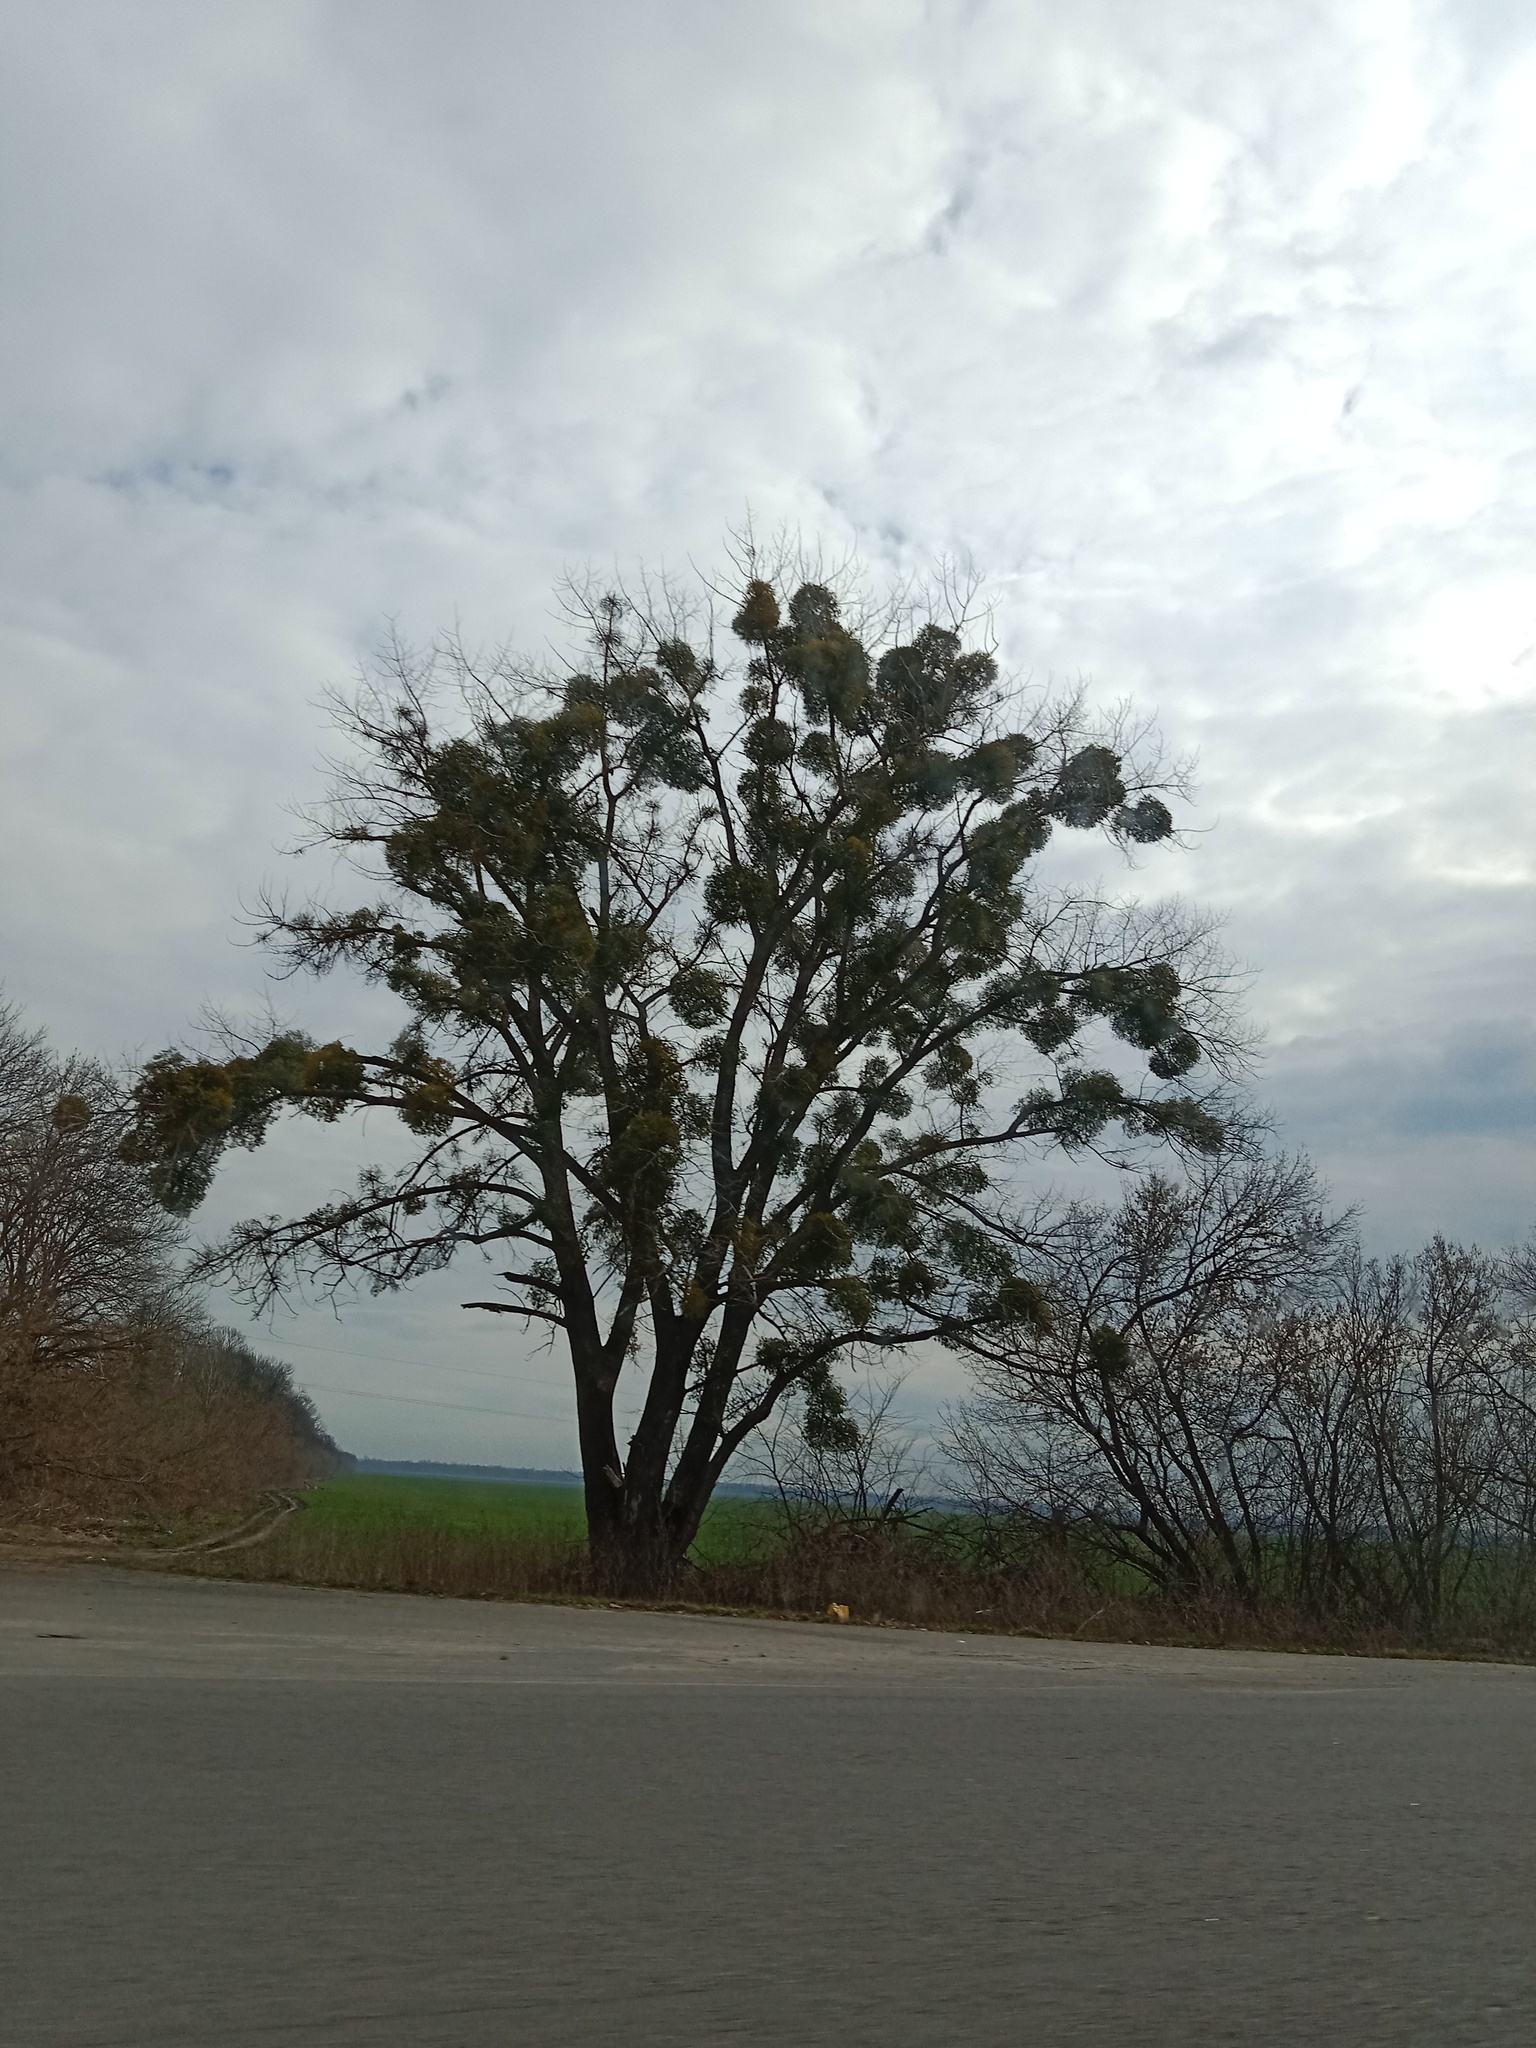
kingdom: Plantae
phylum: Tracheophyta
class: Magnoliopsida
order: Santalales
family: Viscaceae
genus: Viscum
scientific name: Viscum album
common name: Mistletoe
